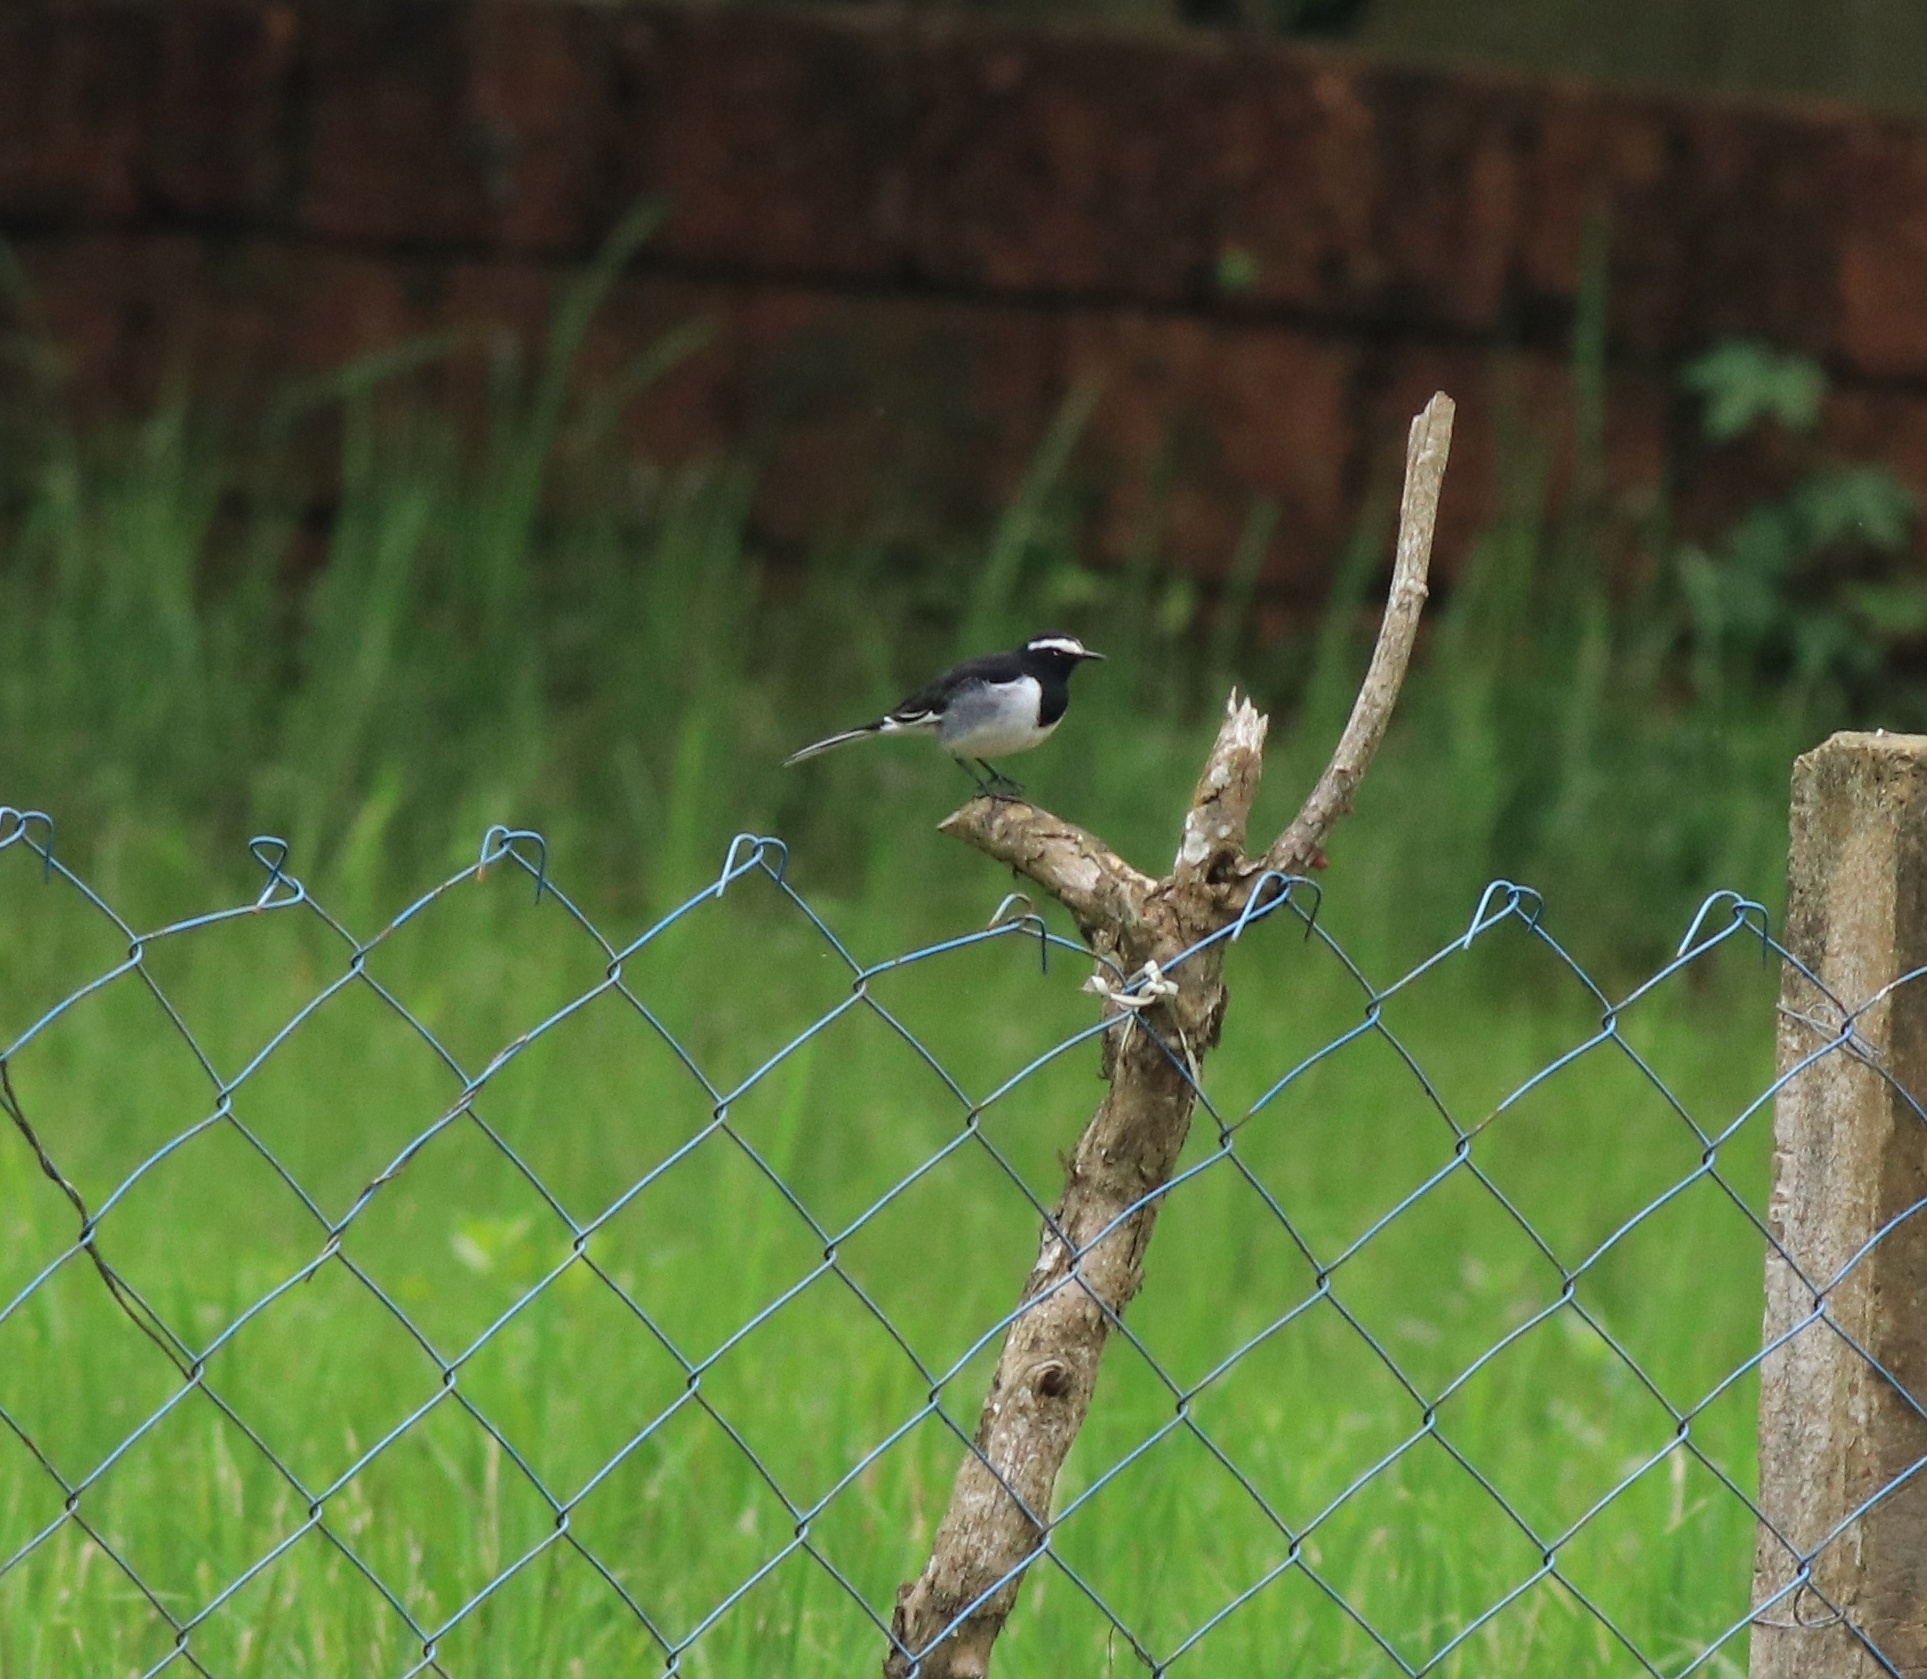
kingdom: Animalia
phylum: Chordata
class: Aves
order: Passeriformes
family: Motacillidae
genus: Motacilla
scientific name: Motacilla maderaspatensis
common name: White-browed wagtail
